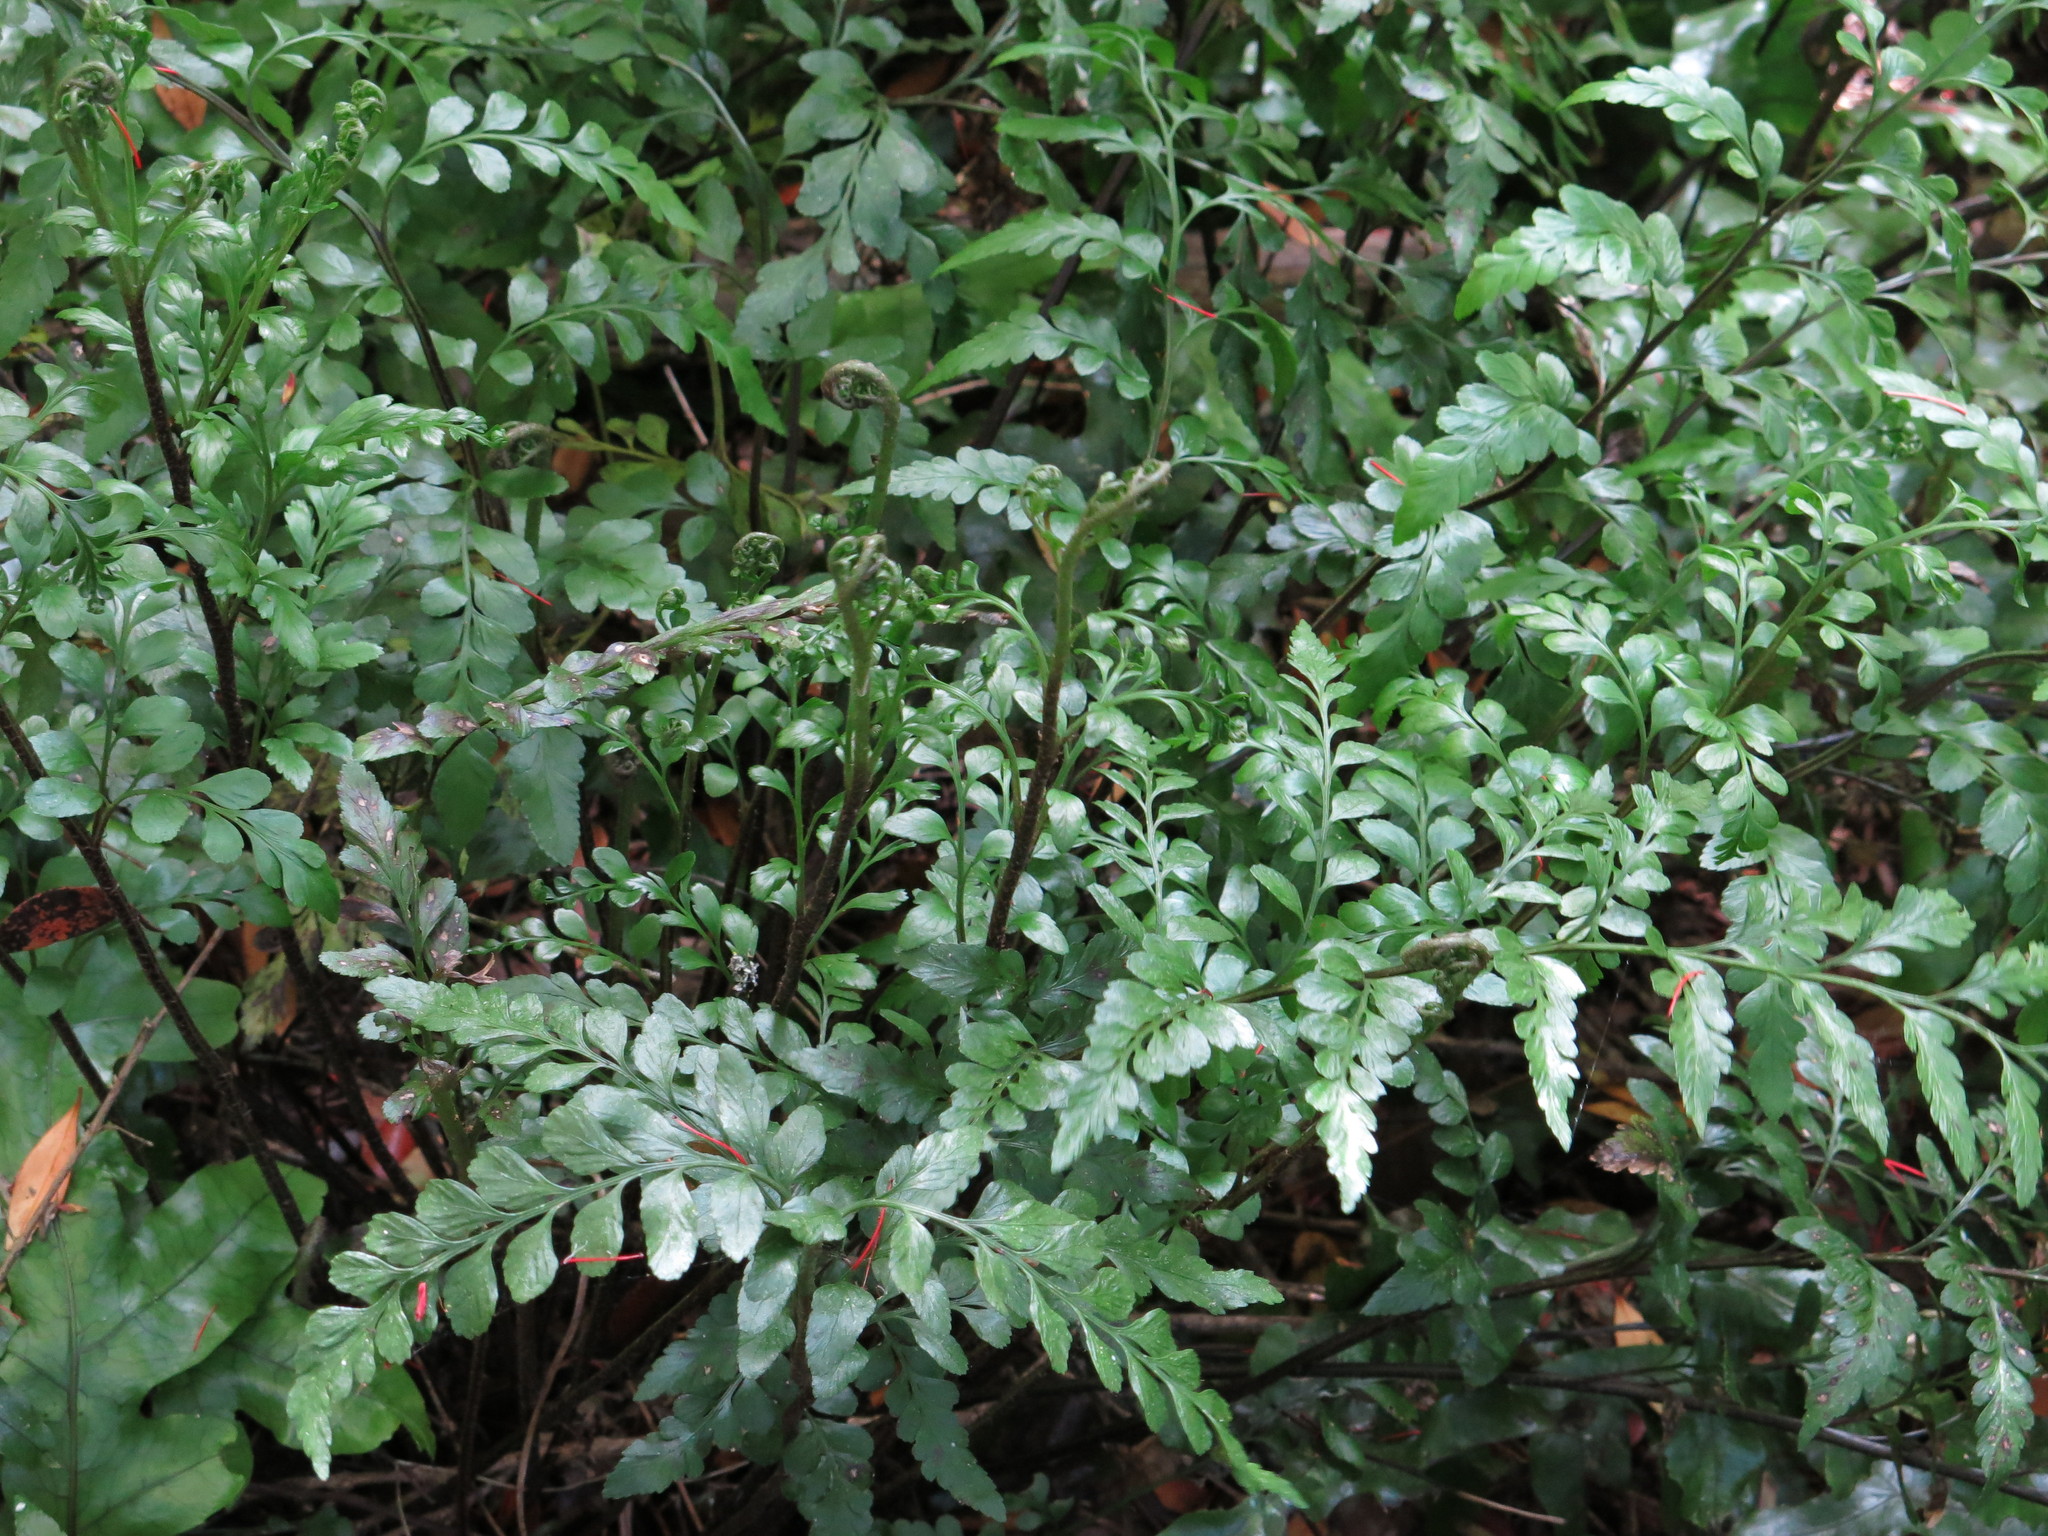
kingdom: Plantae
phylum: Tracheophyta
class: Polypodiopsida
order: Polypodiales
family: Aspleniaceae
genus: Asplenium
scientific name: Asplenium lyallii
